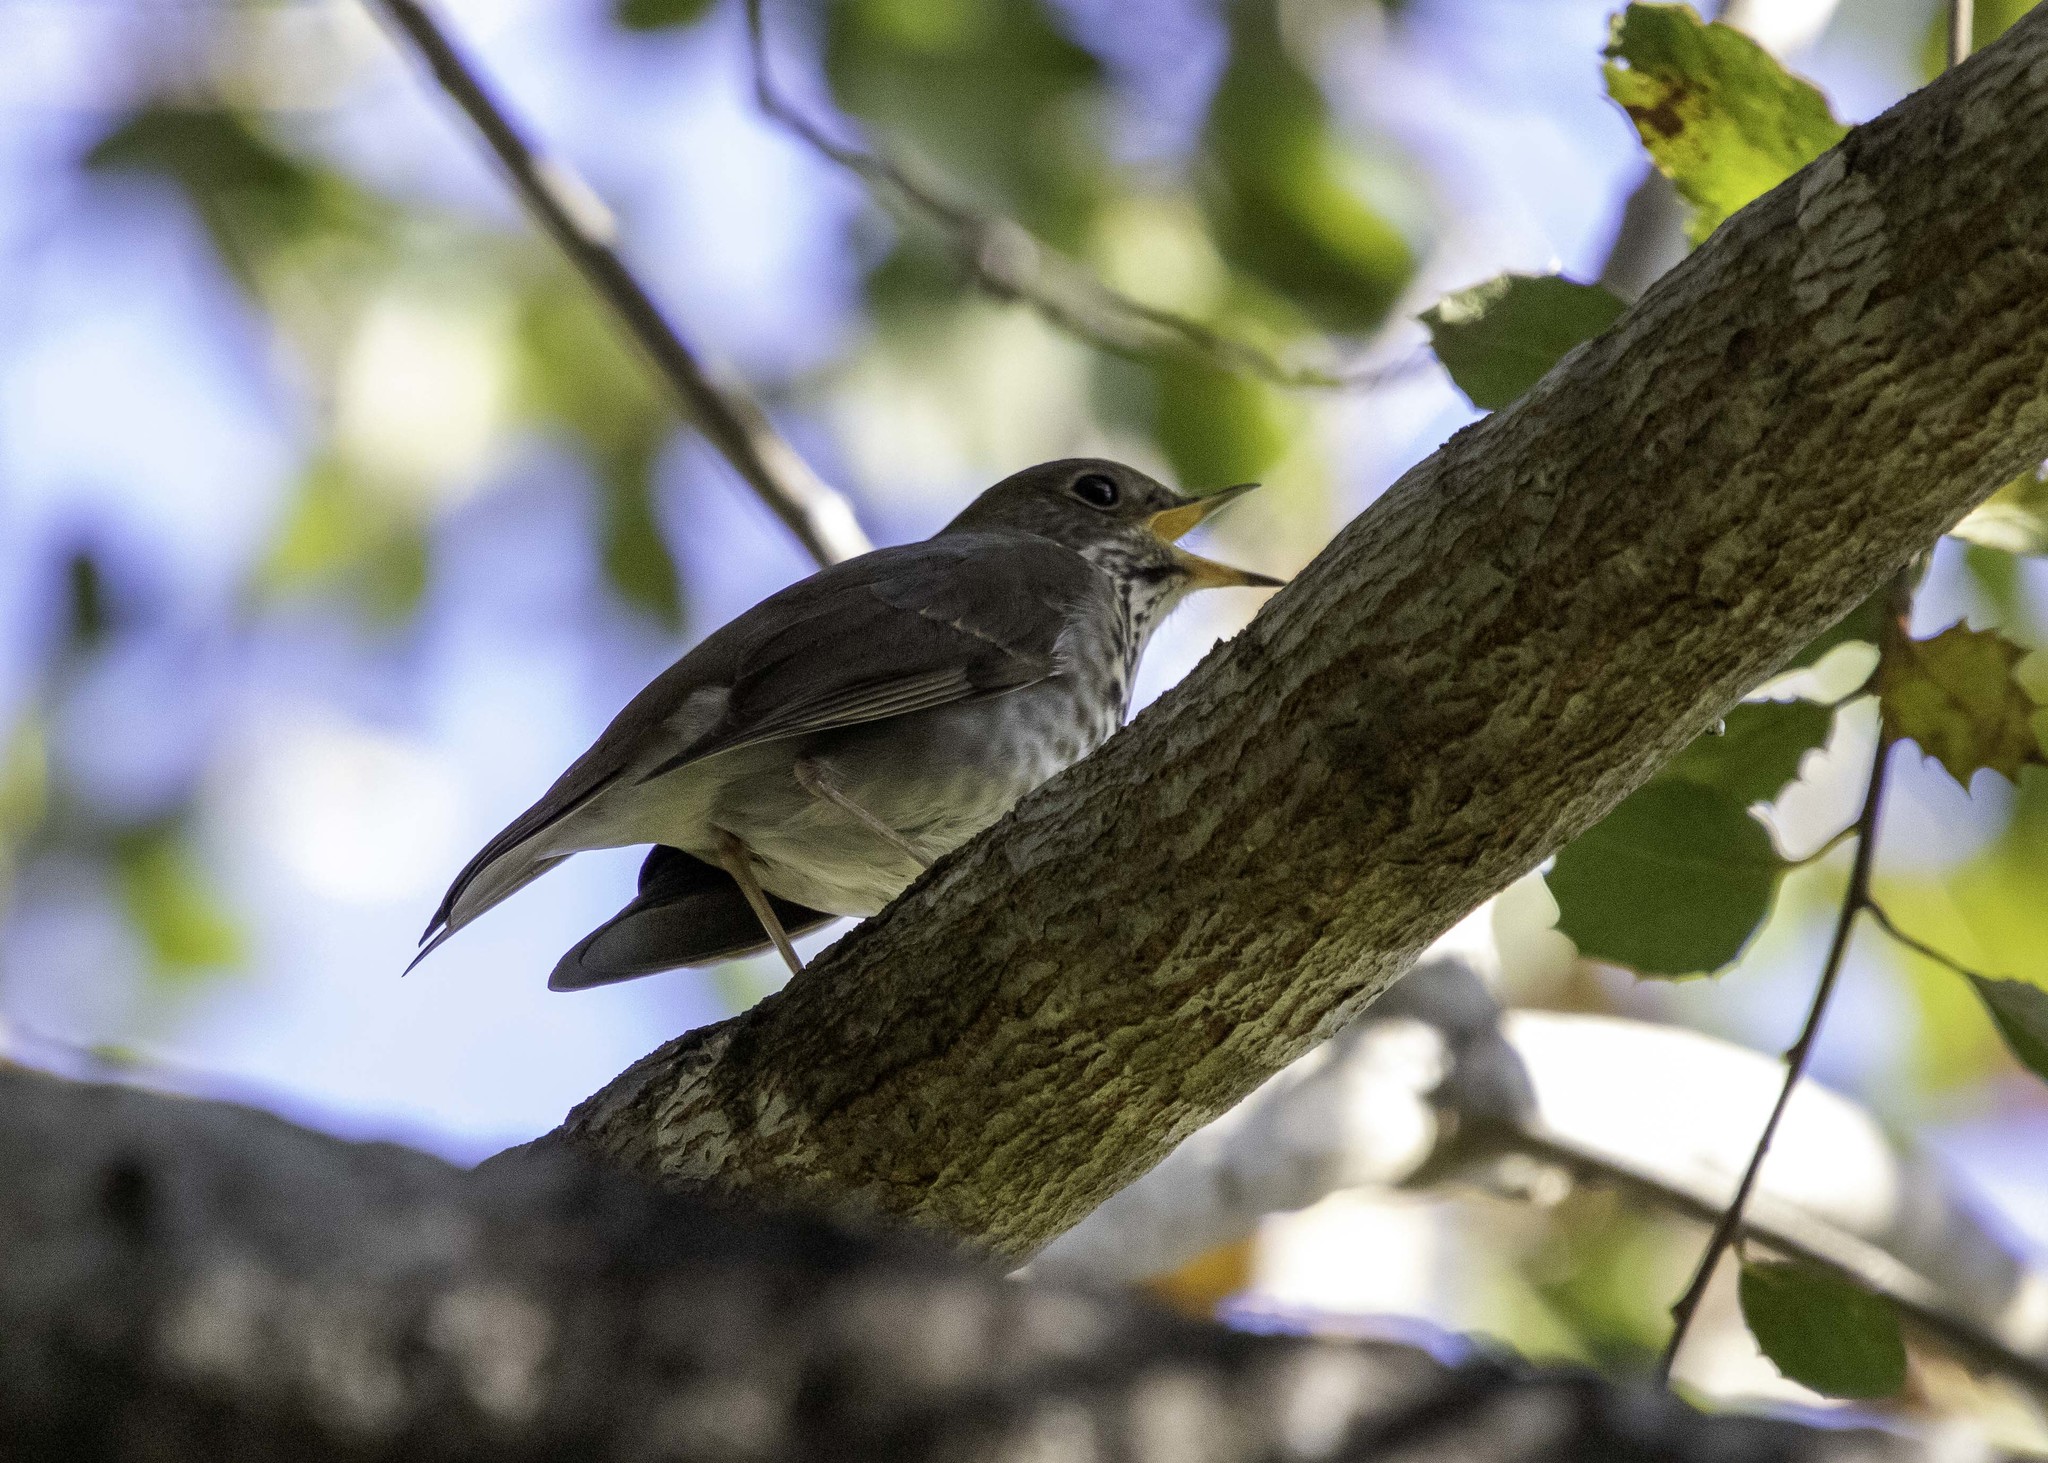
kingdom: Animalia
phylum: Chordata
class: Aves
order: Passeriformes
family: Turdidae
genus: Catharus
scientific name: Catharus guttatus
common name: Hermit thrush
